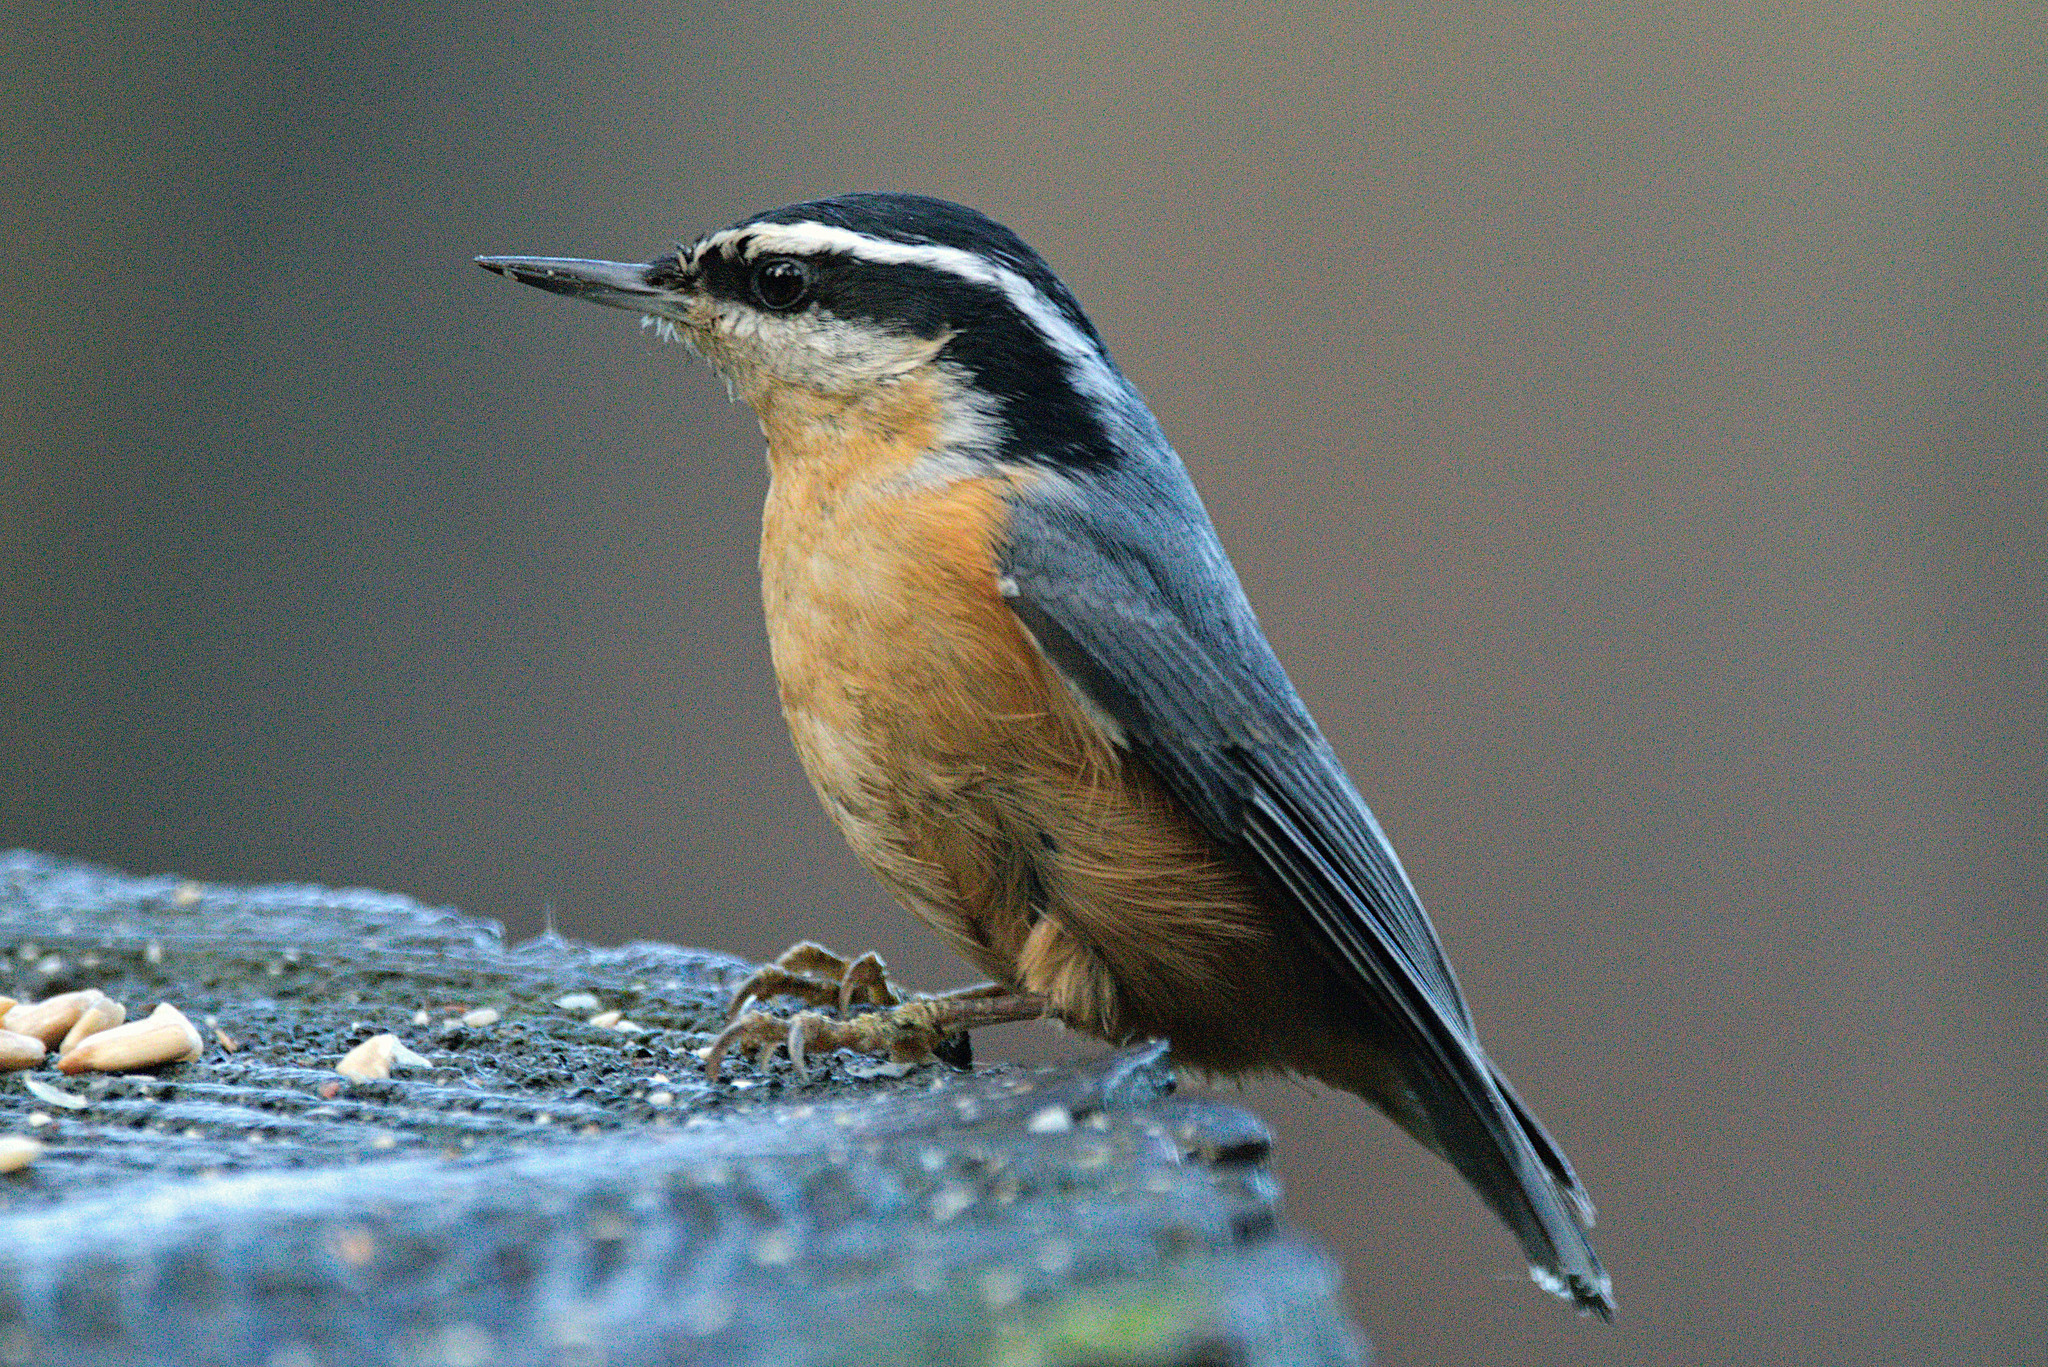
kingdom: Animalia
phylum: Chordata
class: Aves
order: Passeriformes
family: Sittidae
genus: Sitta
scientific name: Sitta canadensis
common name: Red-breasted nuthatch
